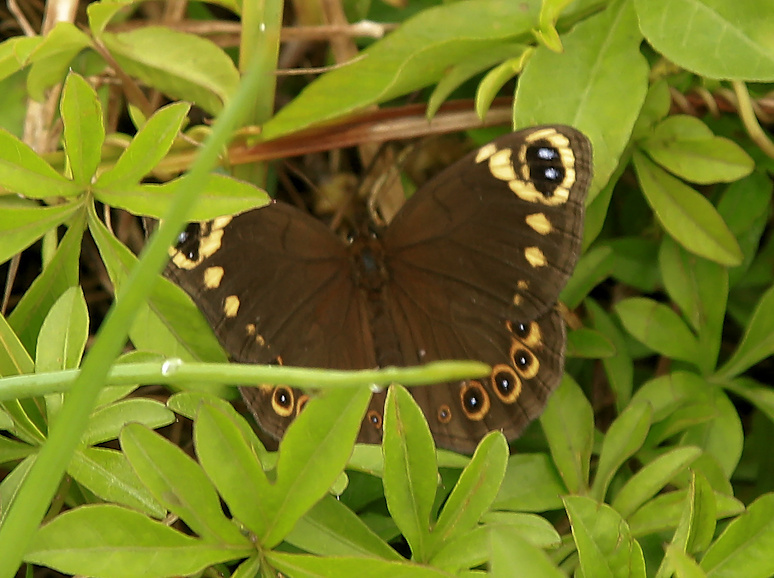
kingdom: Animalia
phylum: Arthropoda
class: Insecta
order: Lepidoptera
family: Nymphalidae
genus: Dira
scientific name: Dira clytus
